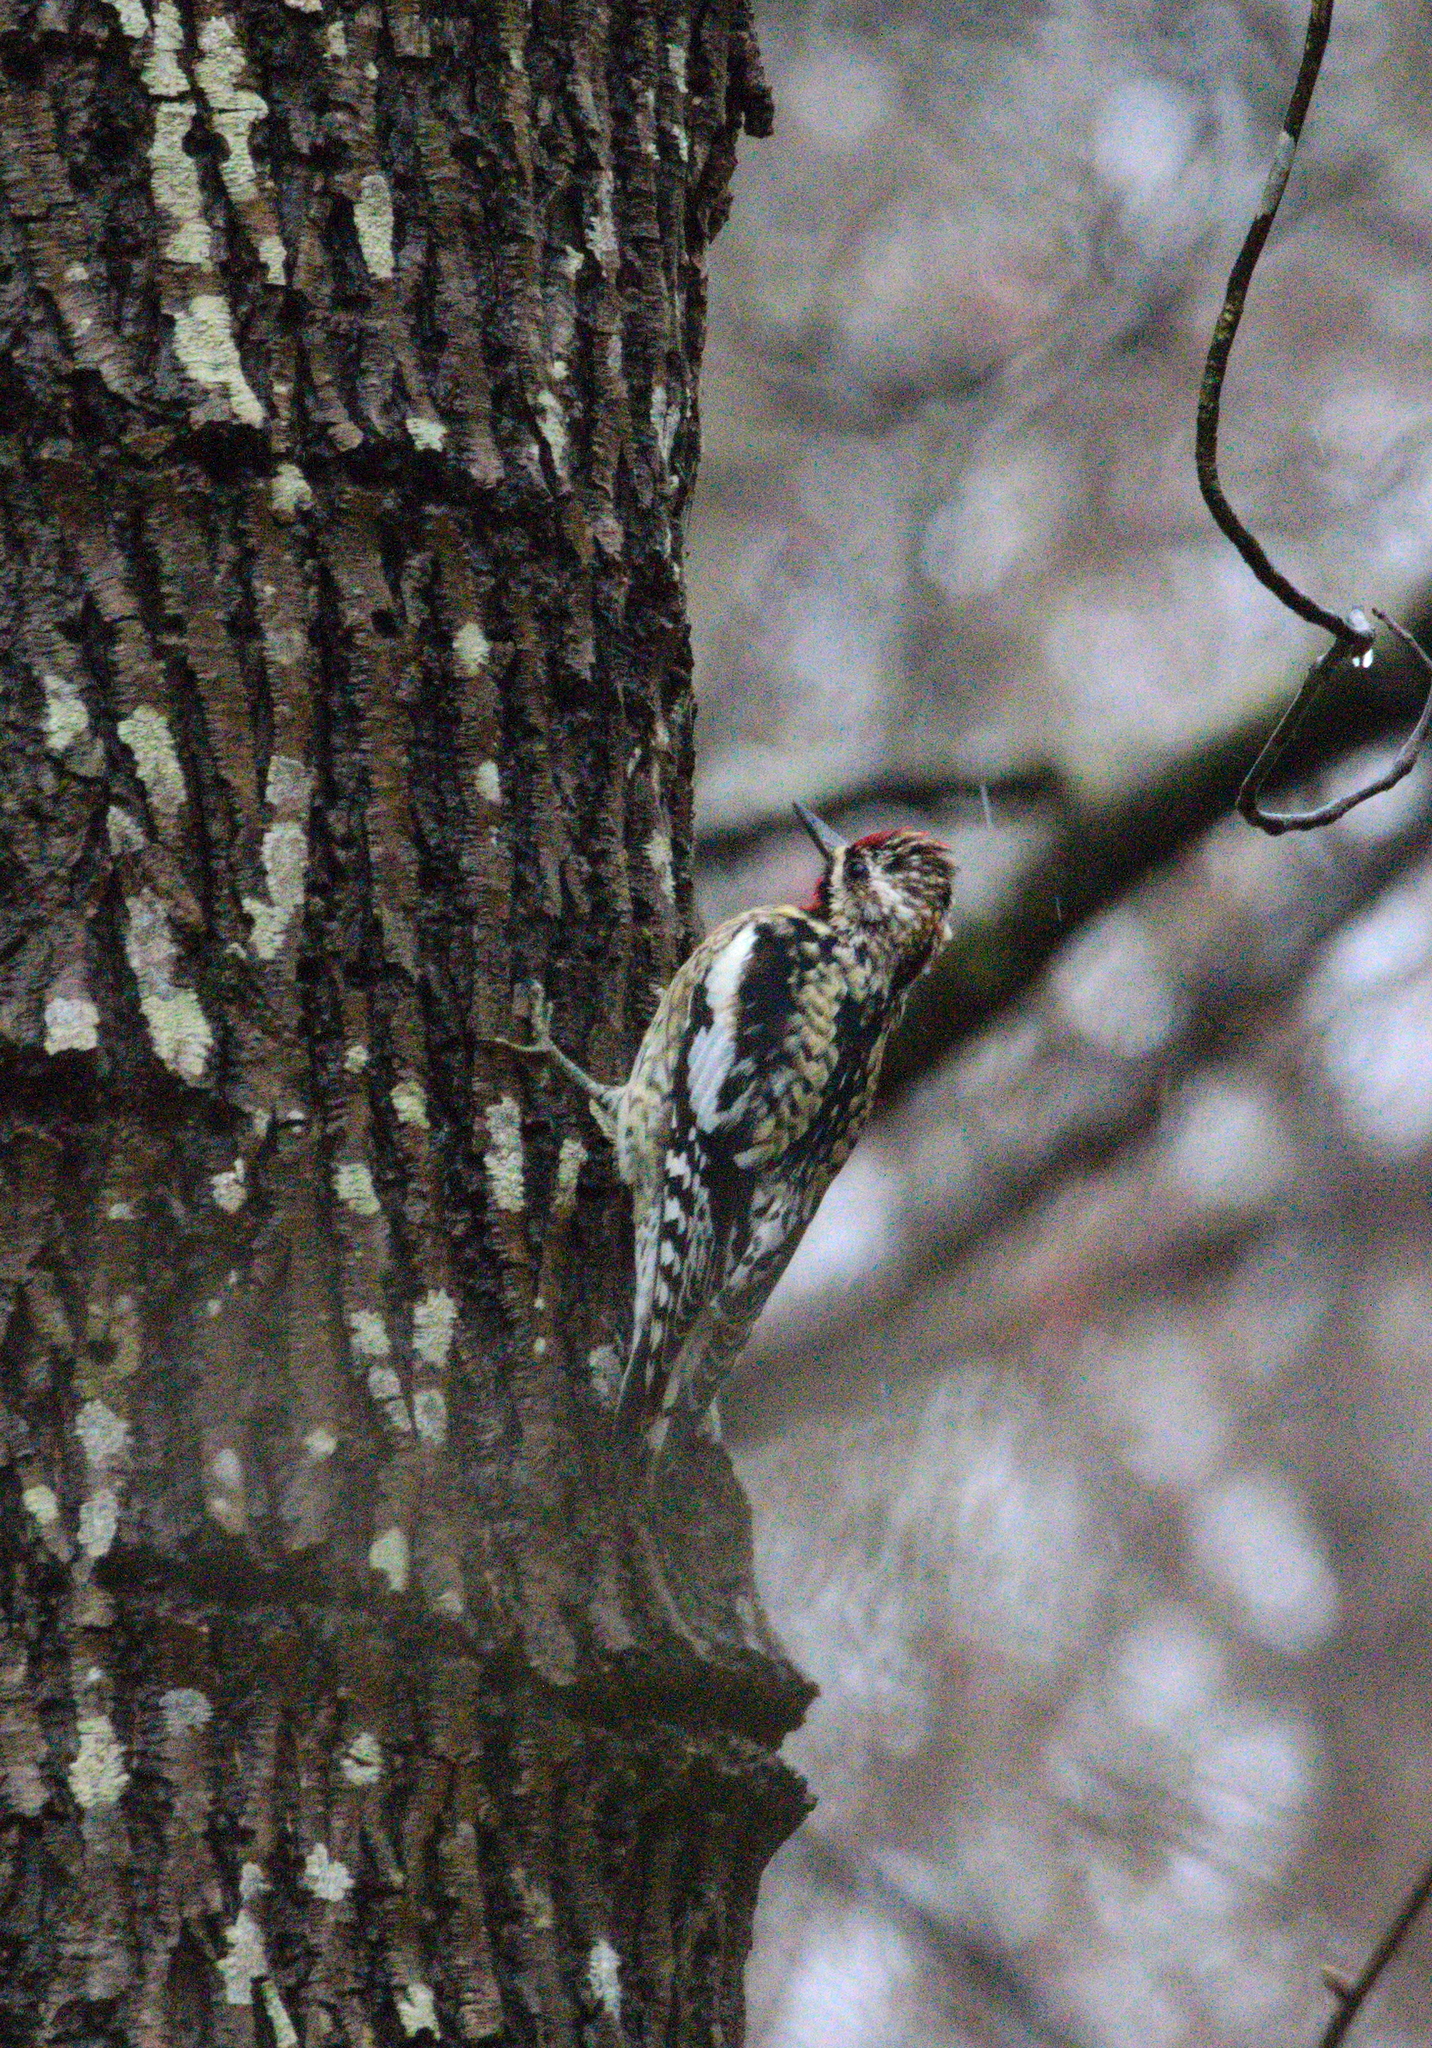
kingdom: Animalia
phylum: Chordata
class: Aves
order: Piciformes
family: Picidae
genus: Sphyrapicus
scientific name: Sphyrapicus varius
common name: Yellow-bellied sapsucker
